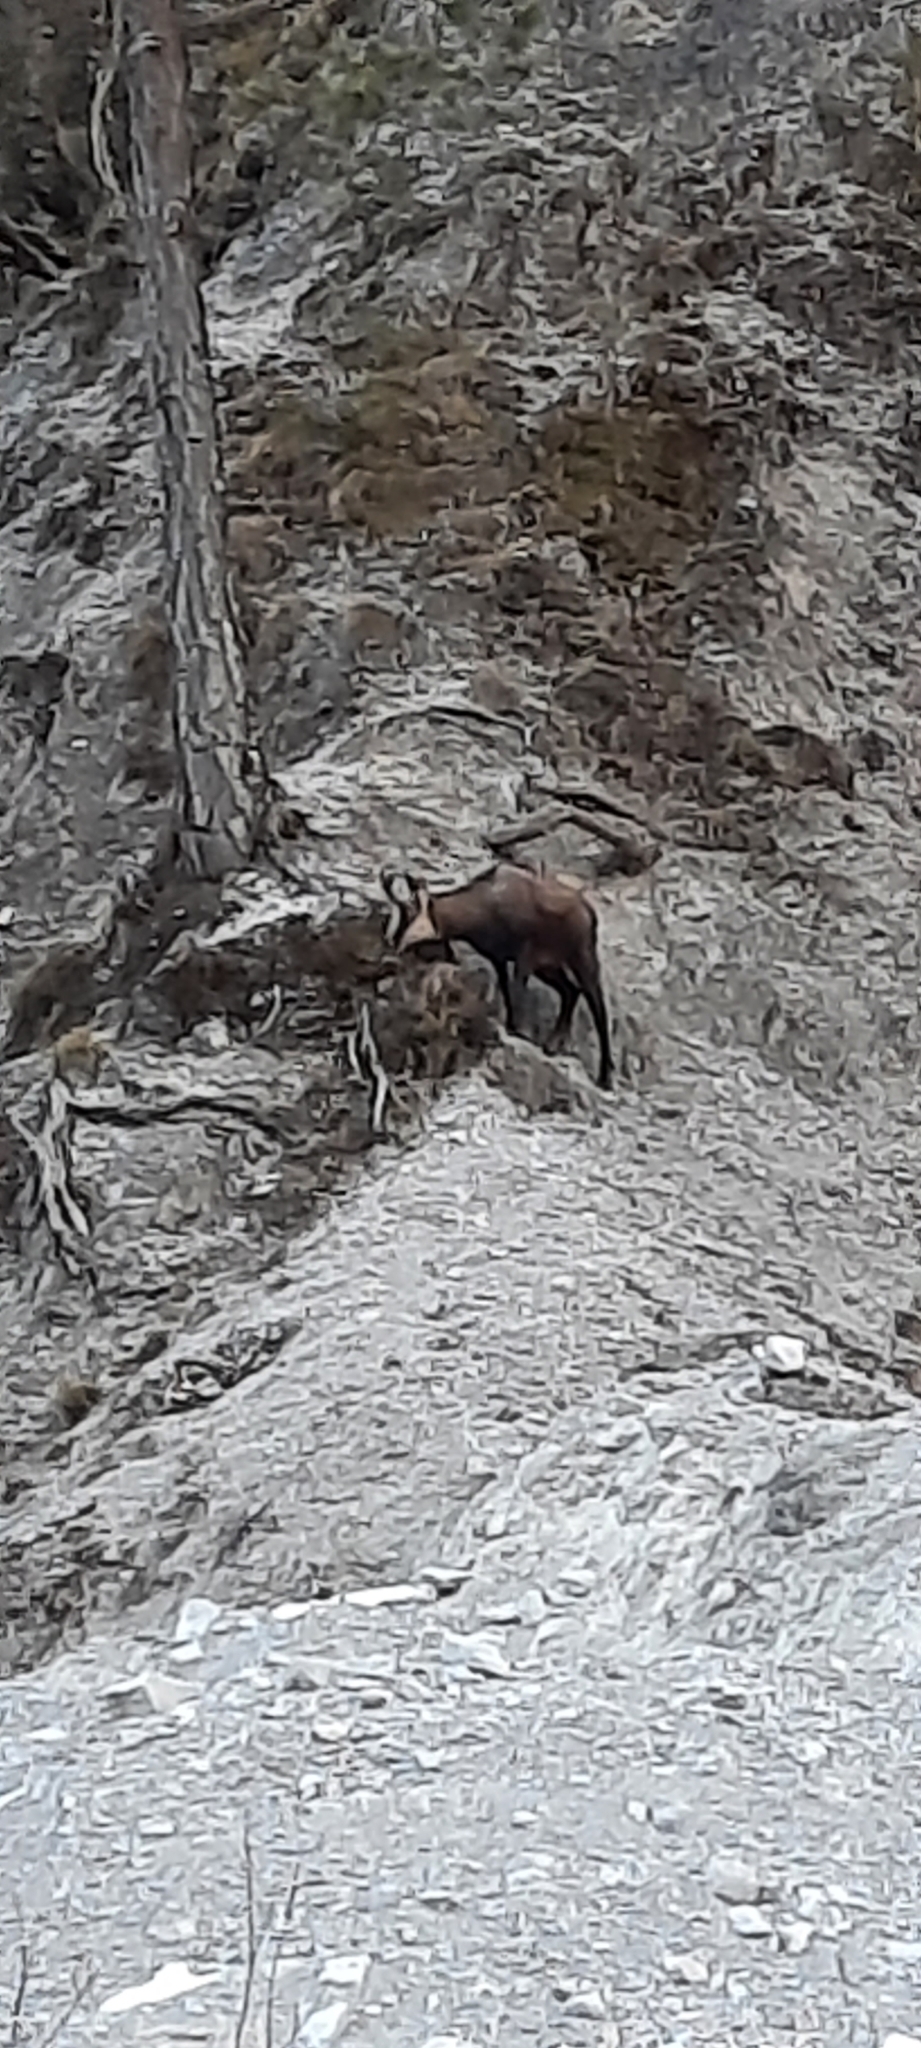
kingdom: Animalia
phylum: Chordata
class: Mammalia
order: Artiodactyla
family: Bovidae
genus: Rupicapra
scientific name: Rupicapra rupicapra
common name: Chamois
